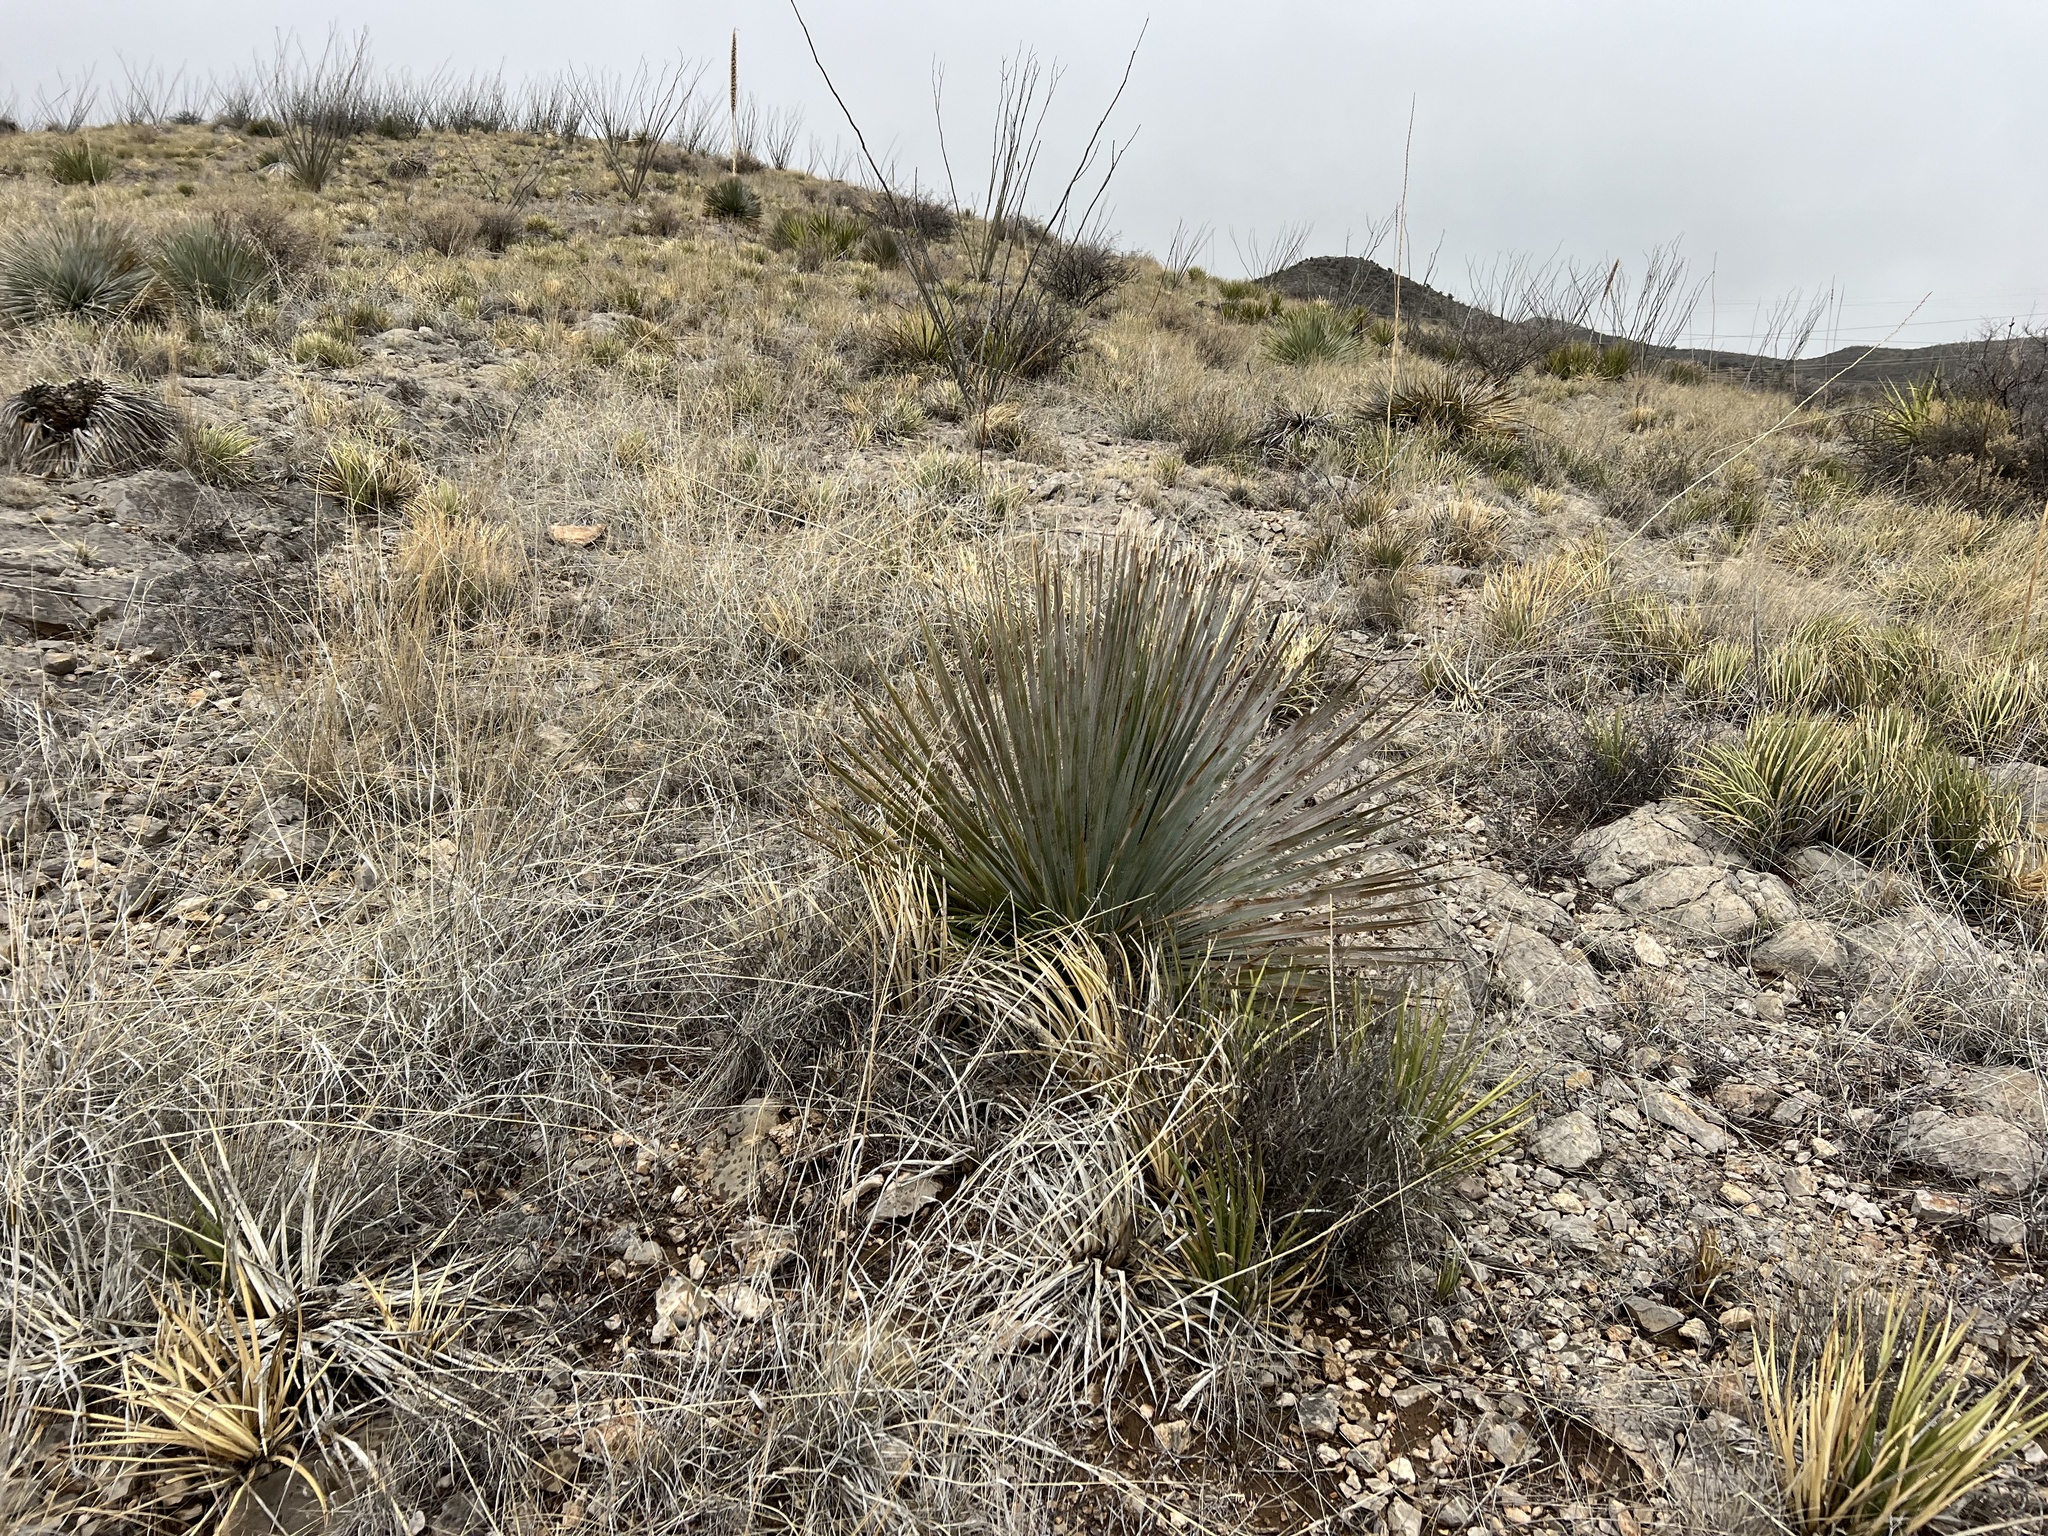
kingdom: Plantae
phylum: Tracheophyta
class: Liliopsida
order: Asparagales
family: Asparagaceae
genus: Dasylirion
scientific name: Dasylirion wheeleri
